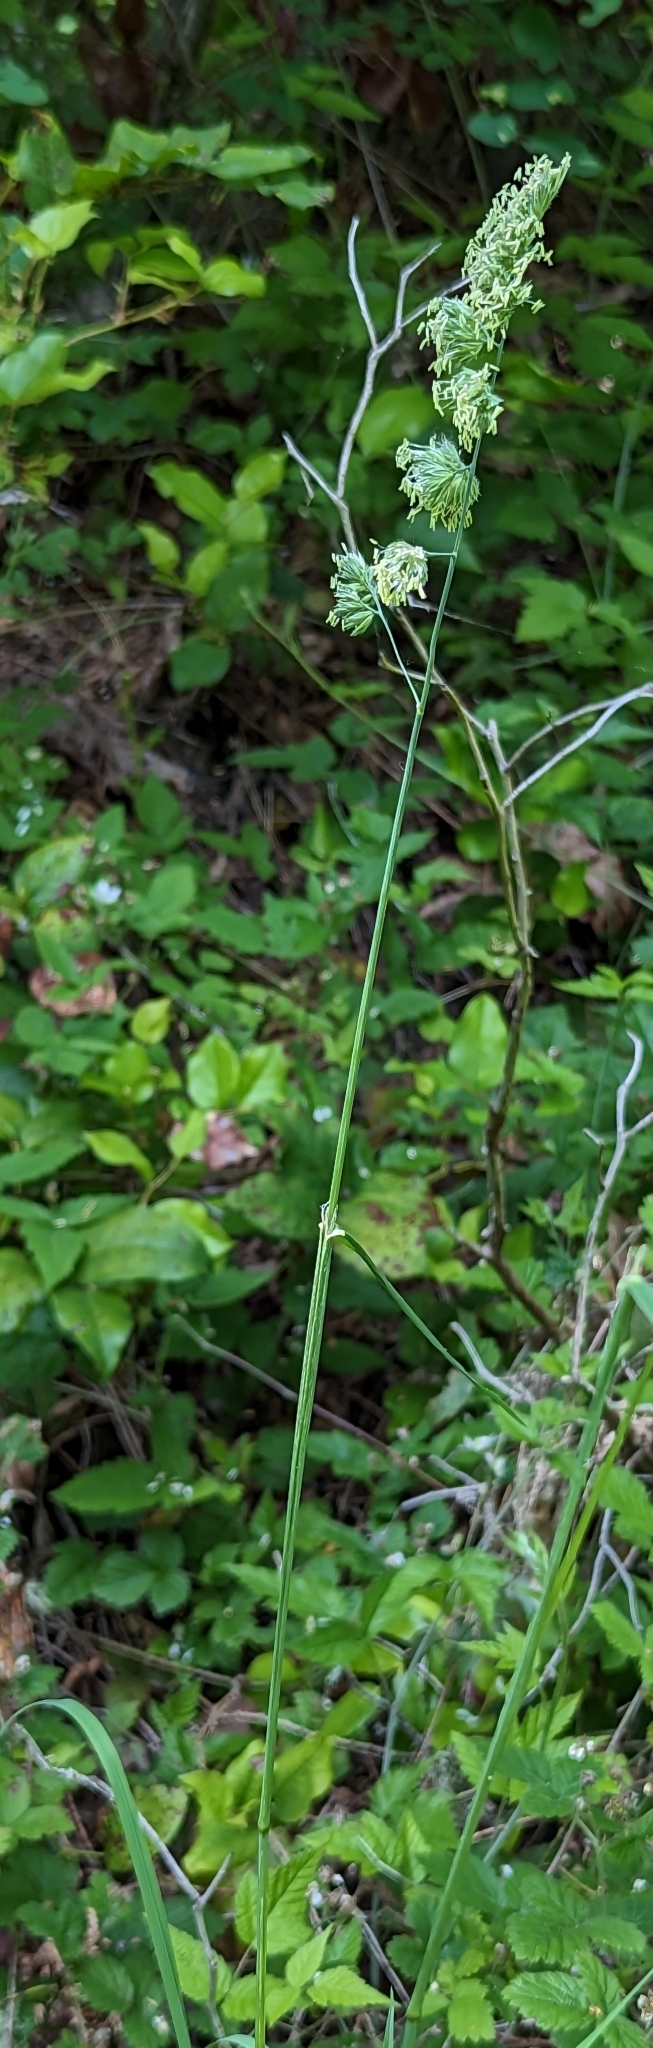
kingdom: Plantae
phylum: Tracheophyta
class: Liliopsida
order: Poales
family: Poaceae
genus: Dactylis
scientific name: Dactylis glomerata
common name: Orchardgrass
